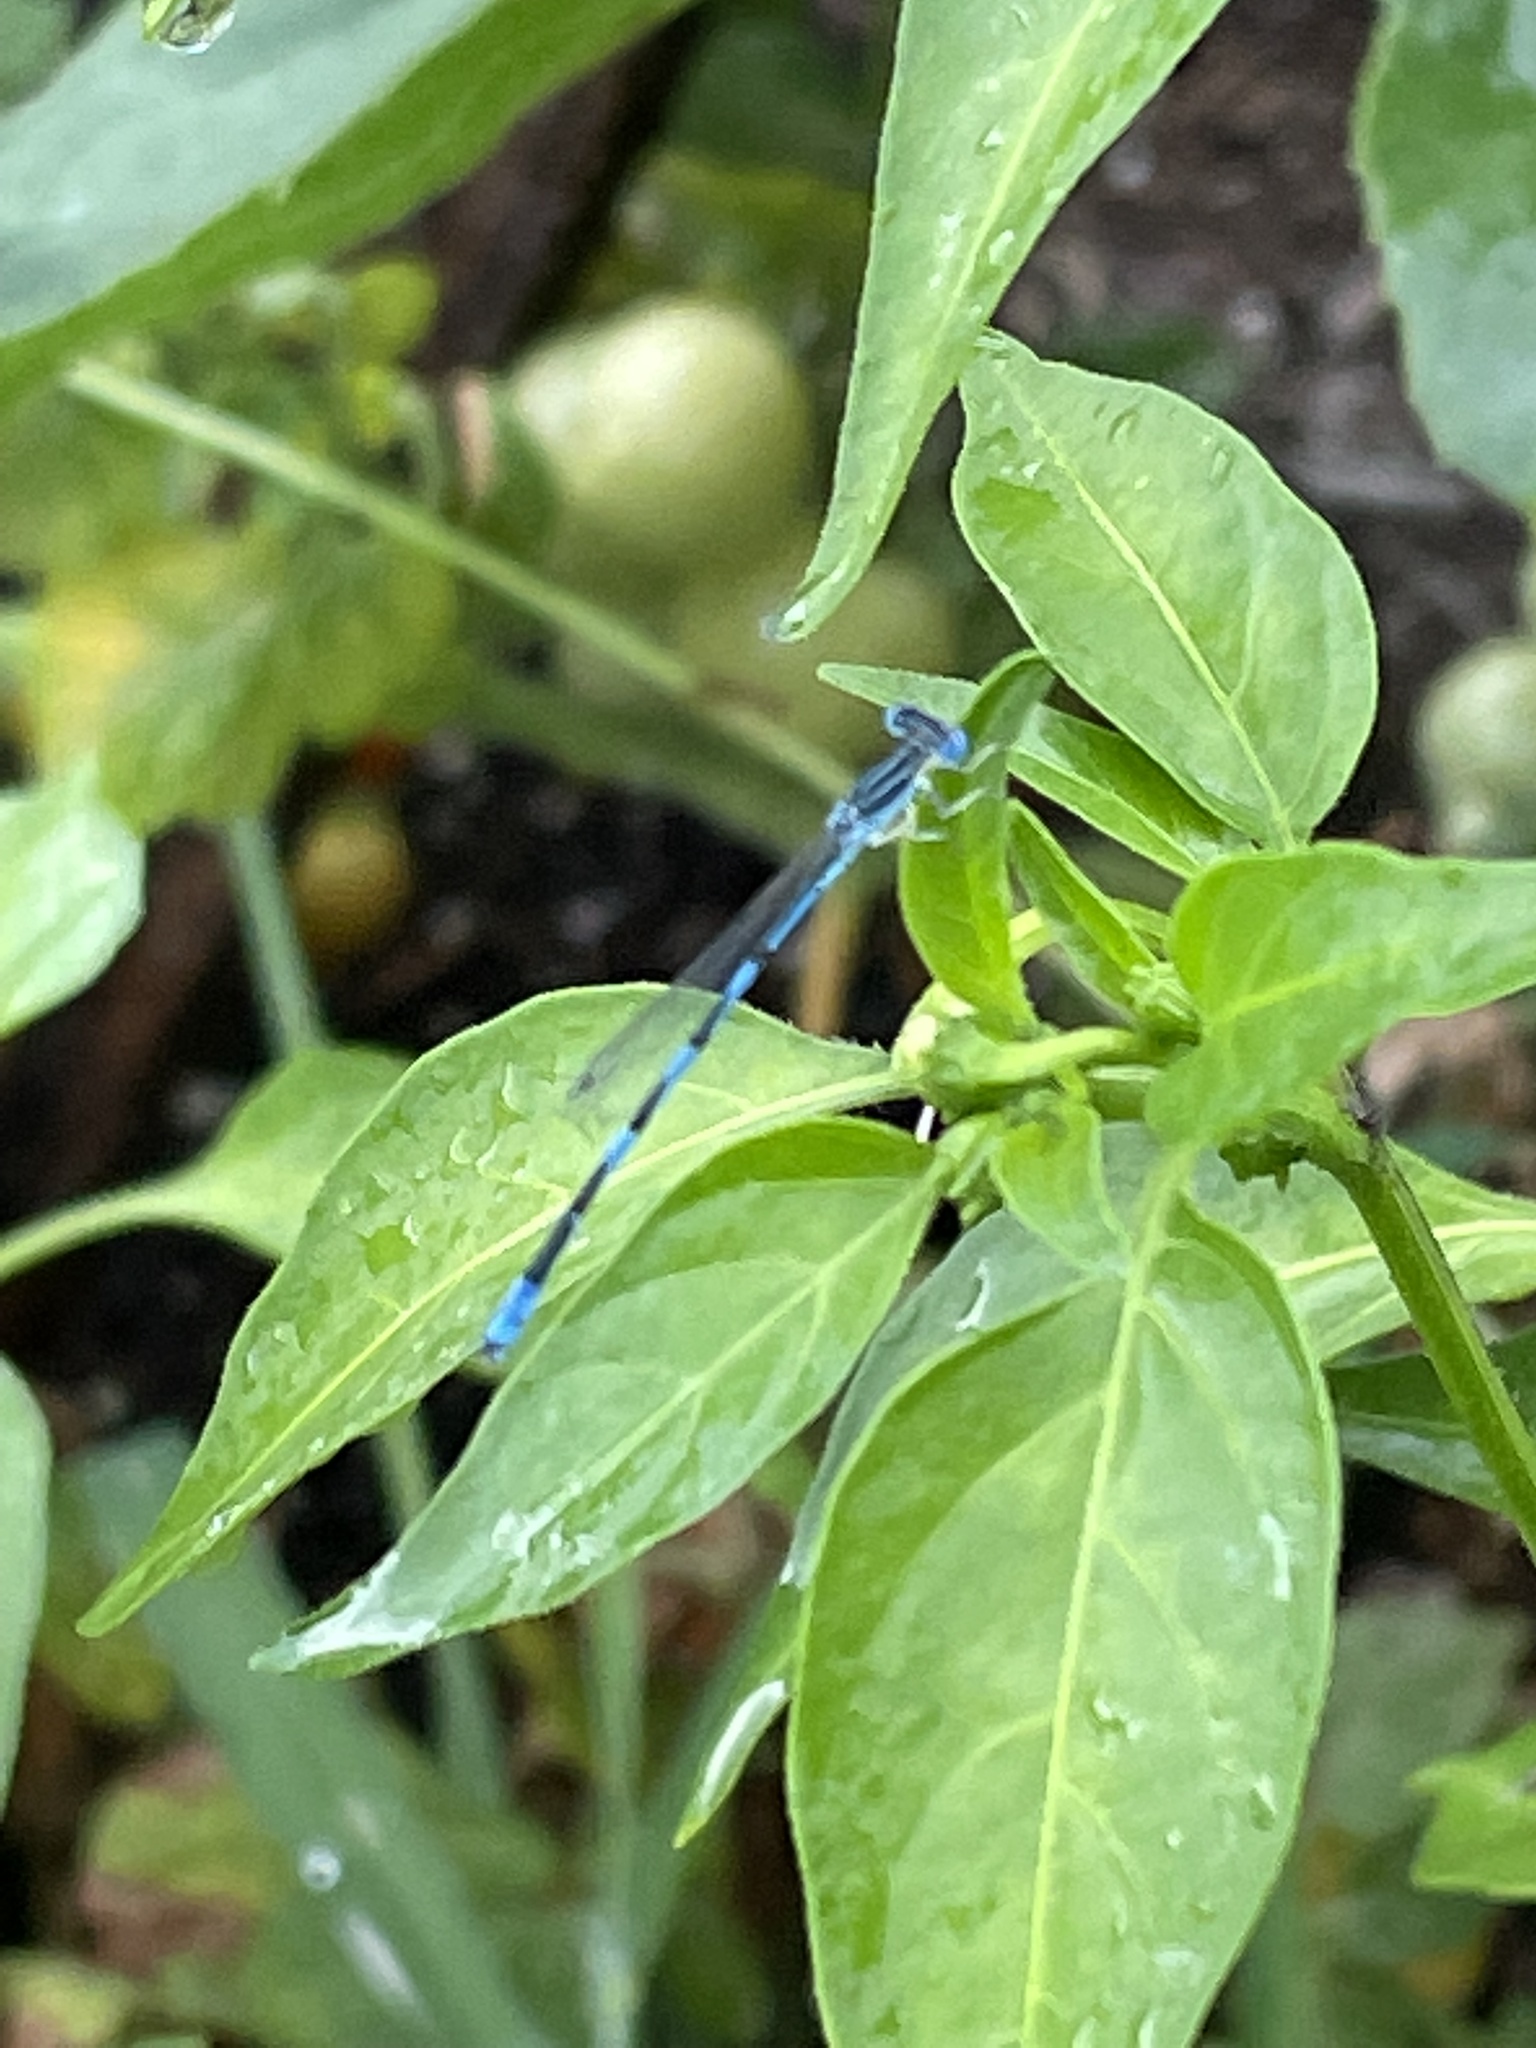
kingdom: Animalia
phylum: Arthropoda
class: Insecta
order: Odonata
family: Coenagrionidae
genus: Enallagma
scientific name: Enallagma basidens
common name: Double-striped bluet
